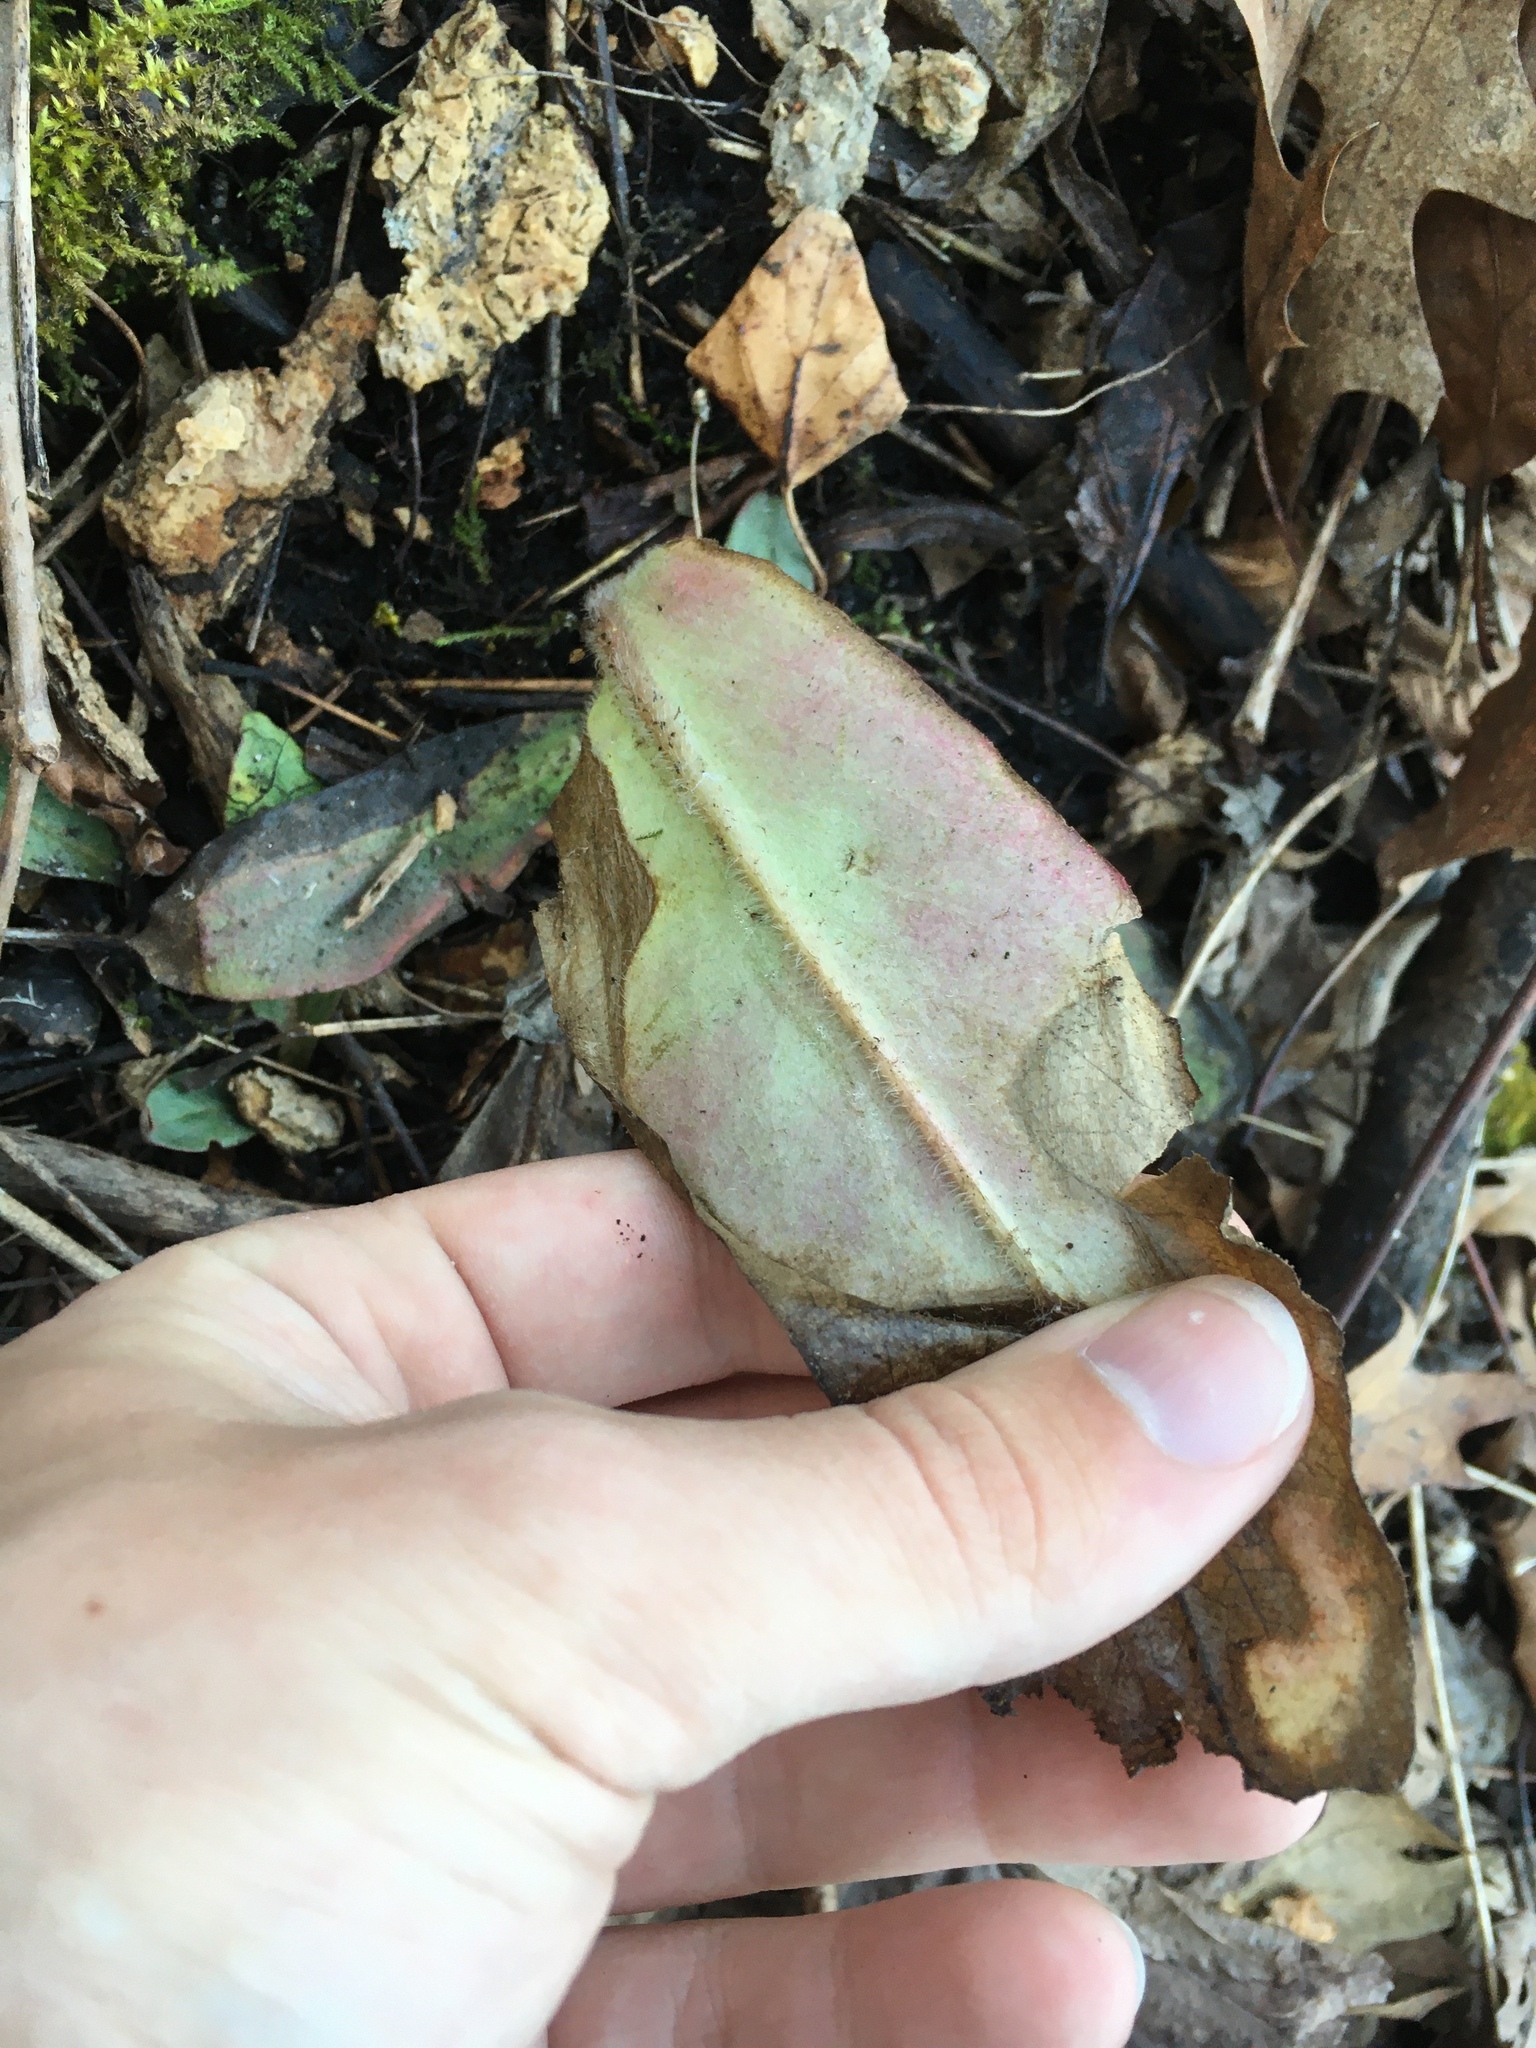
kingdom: Plantae
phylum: Tracheophyta
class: Magnoliopsida
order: Saxifragales
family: Saxifragaceae
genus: Micranthes
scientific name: Micranthes pensylvanica
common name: Marsh saxifrage
